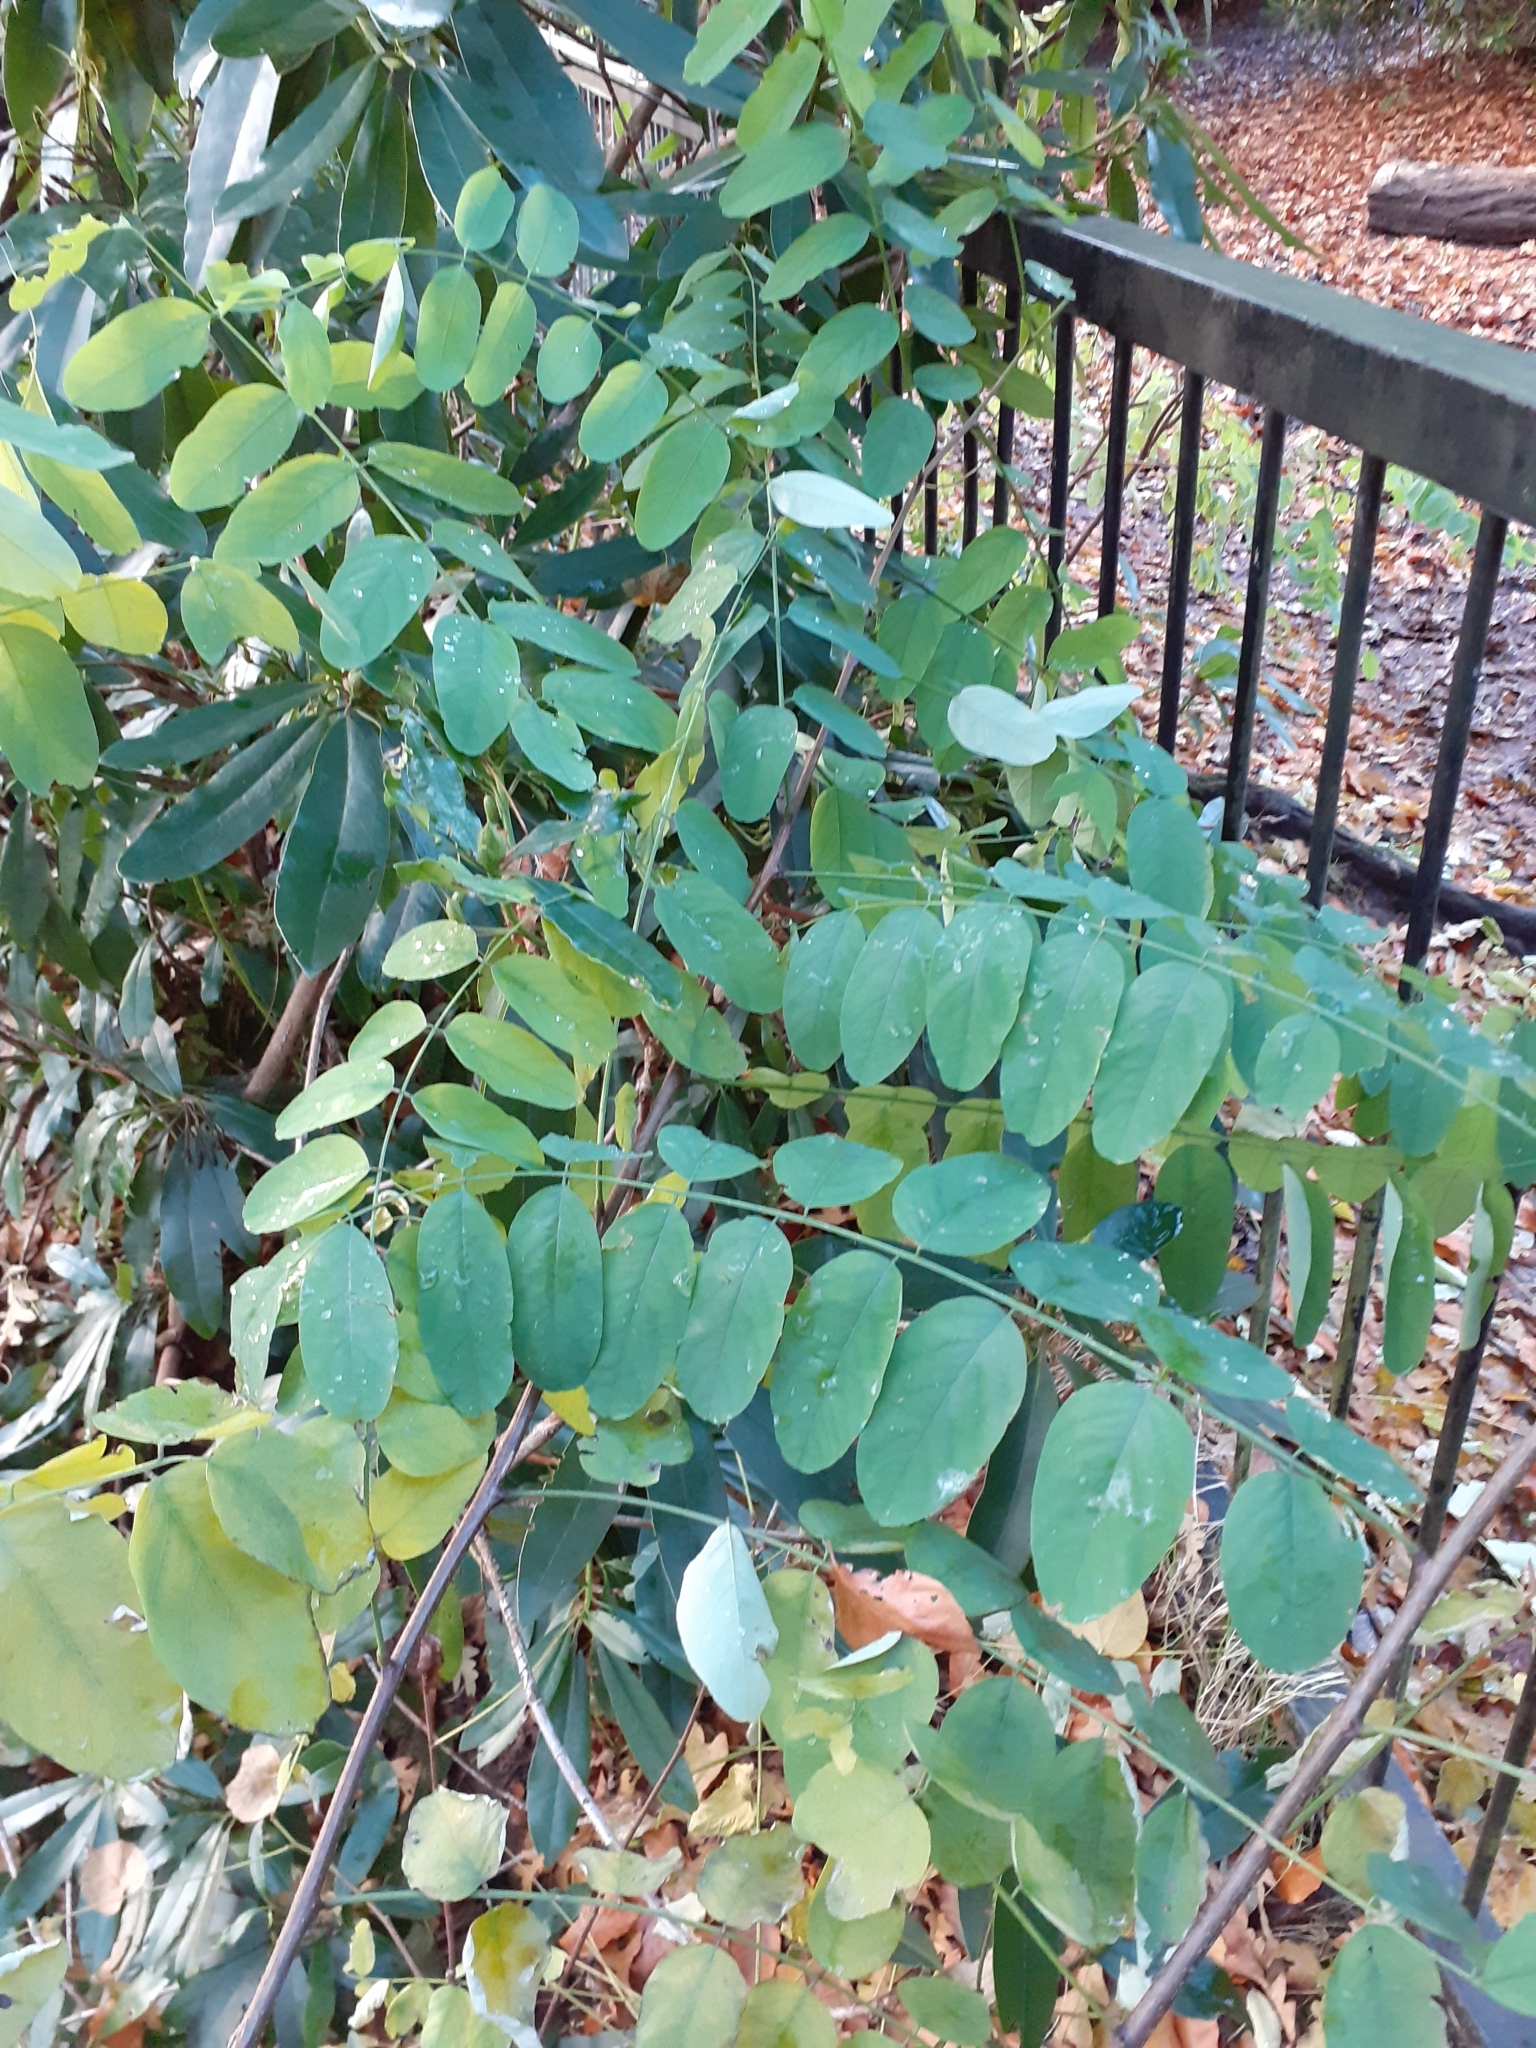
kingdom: Plantae
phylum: Tracheophyta
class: Magnoliopsida
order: Fabales
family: Fabaceae
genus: Robinia
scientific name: Robinia pseudoacacia
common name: Black locust
